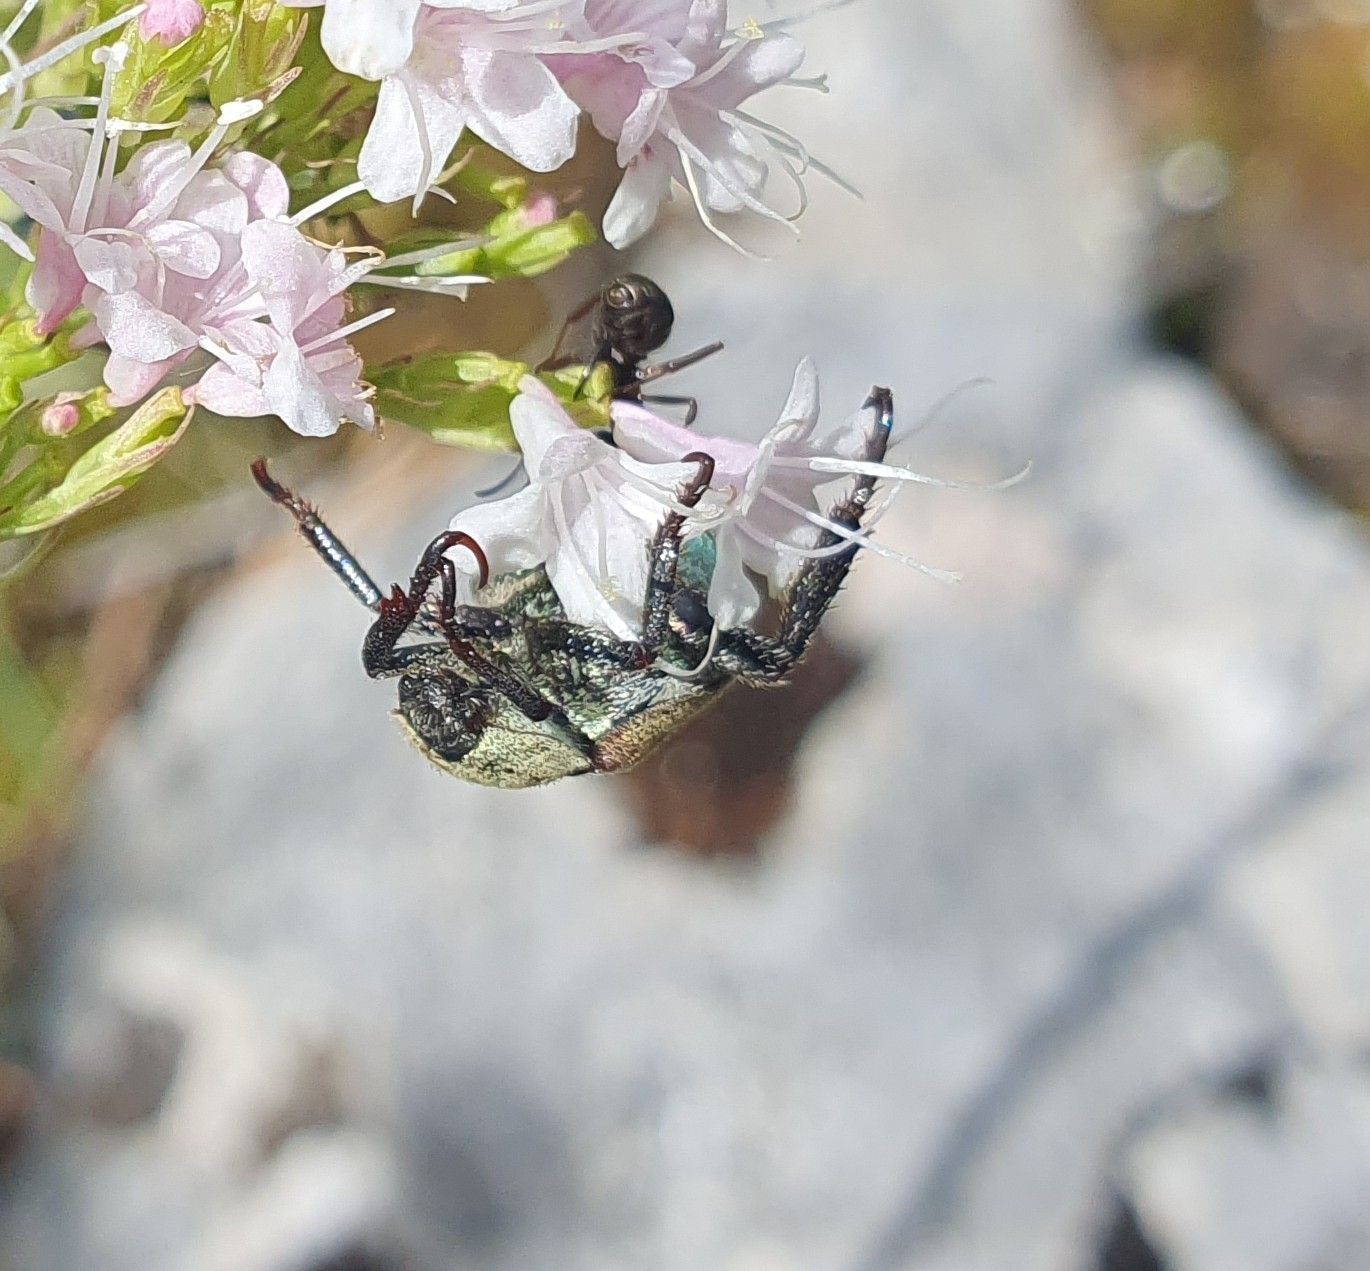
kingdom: Animalia
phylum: Arthropoda
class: Insecta
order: Coleoptera
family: Scarabaeidae
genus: Hoplia
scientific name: Hoplia argentea
